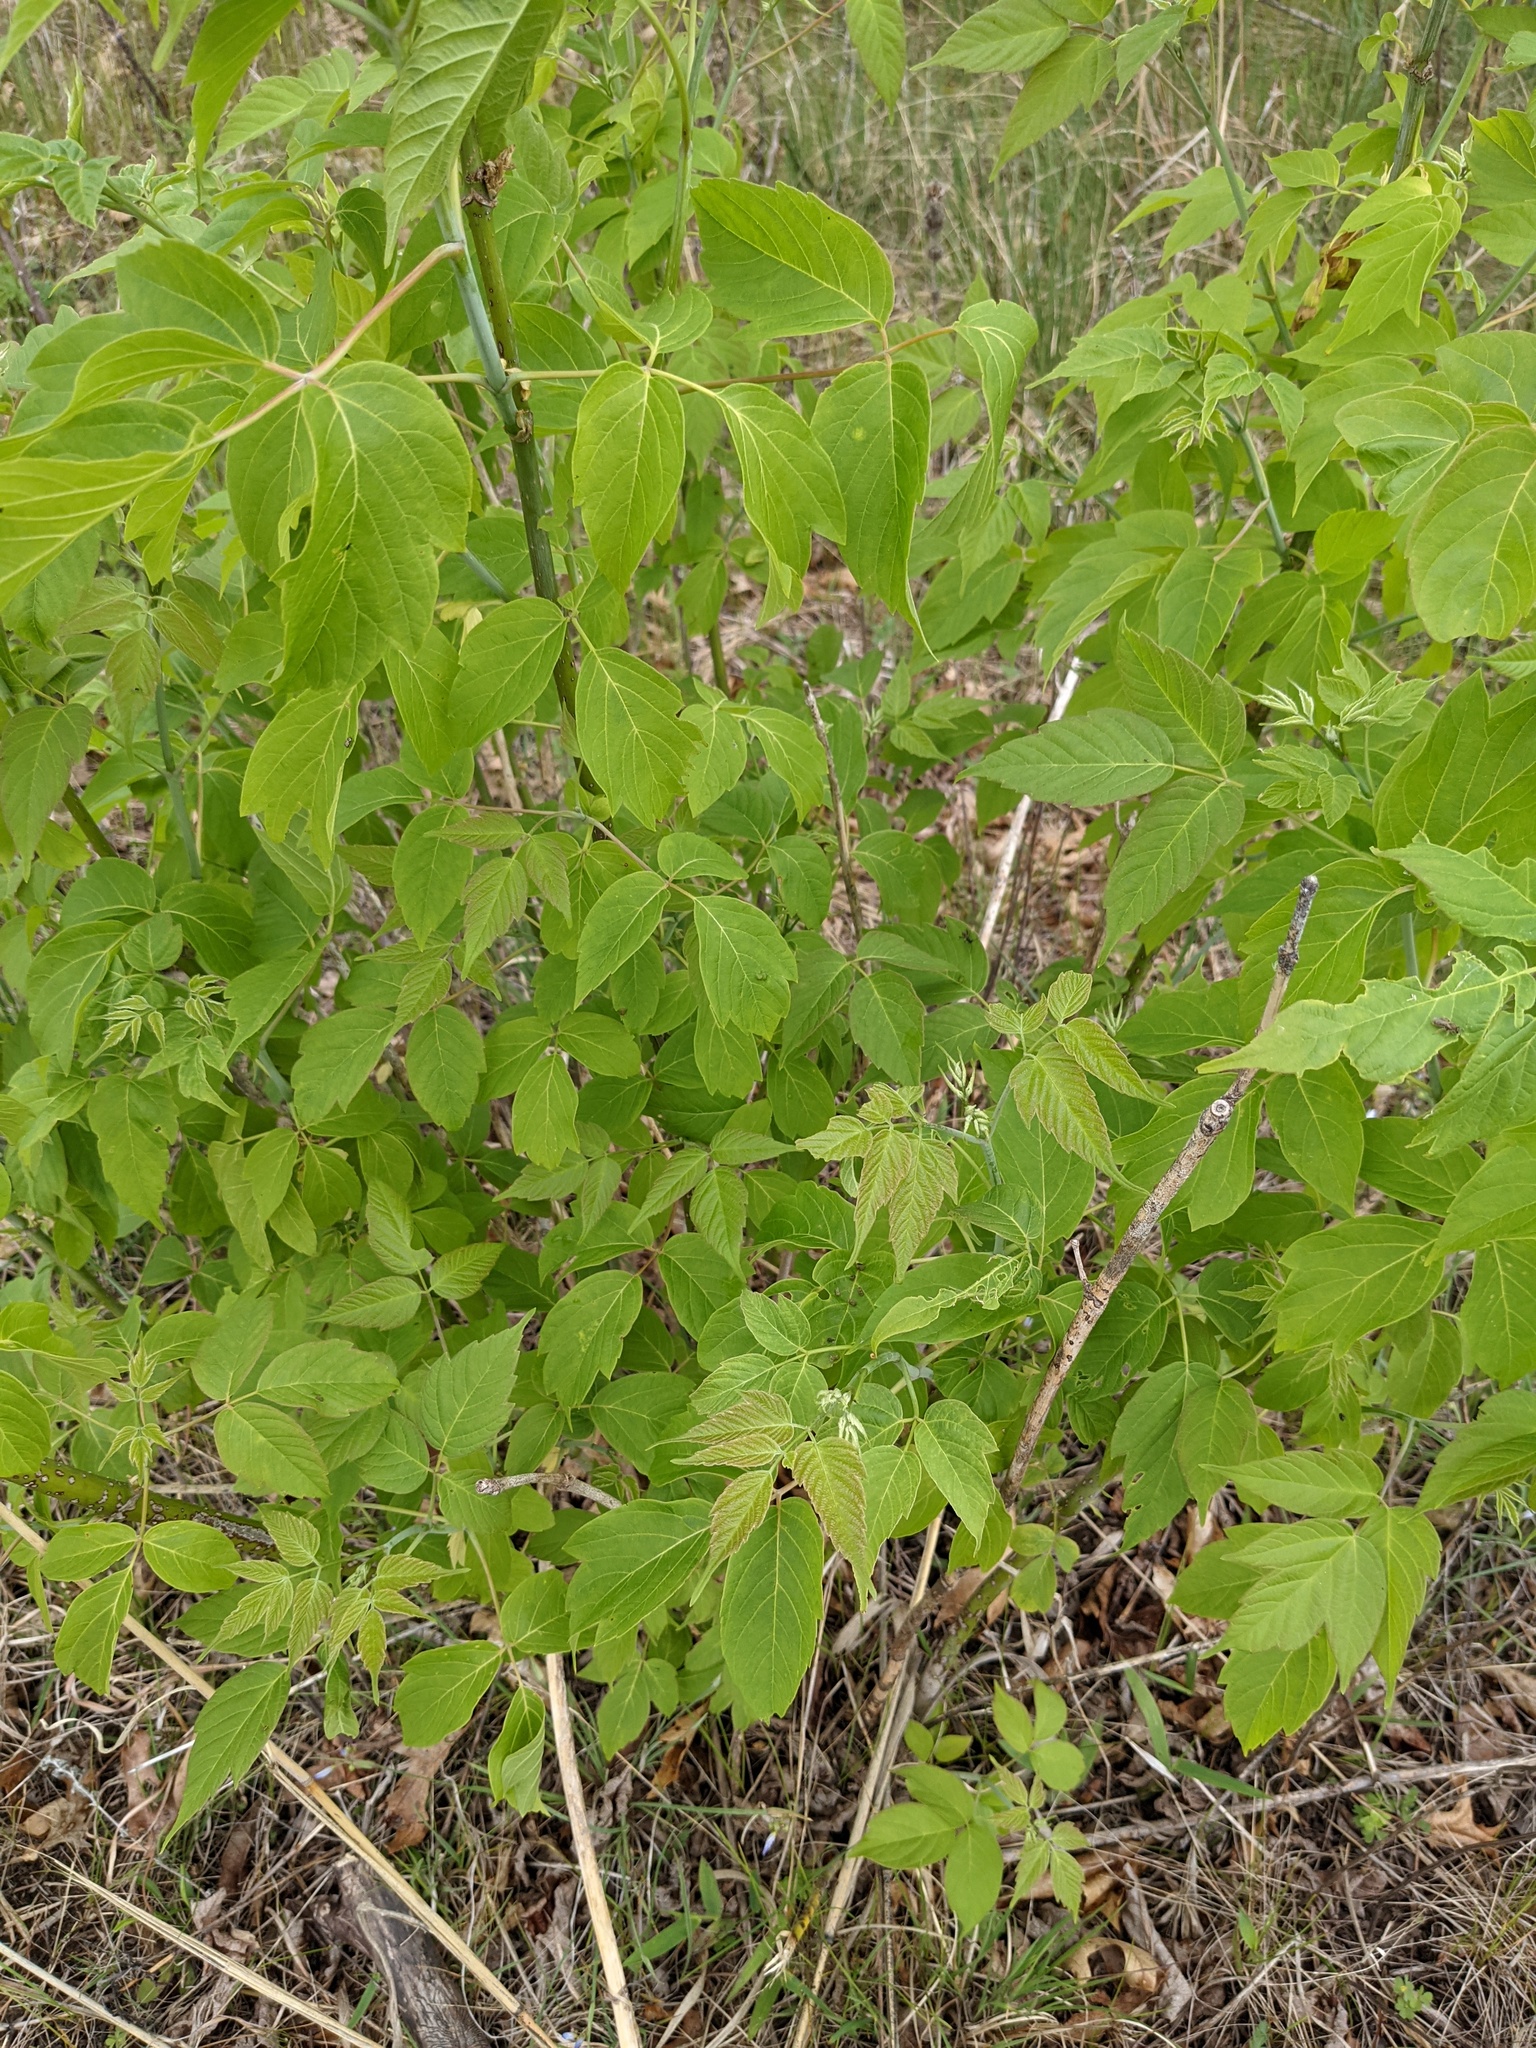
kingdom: Plantae
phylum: Tracheophyta
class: Magnoliopsida
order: Sapindales
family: Sapindaceae
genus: Acer
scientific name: Acer negundo
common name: Ashleaf maple
